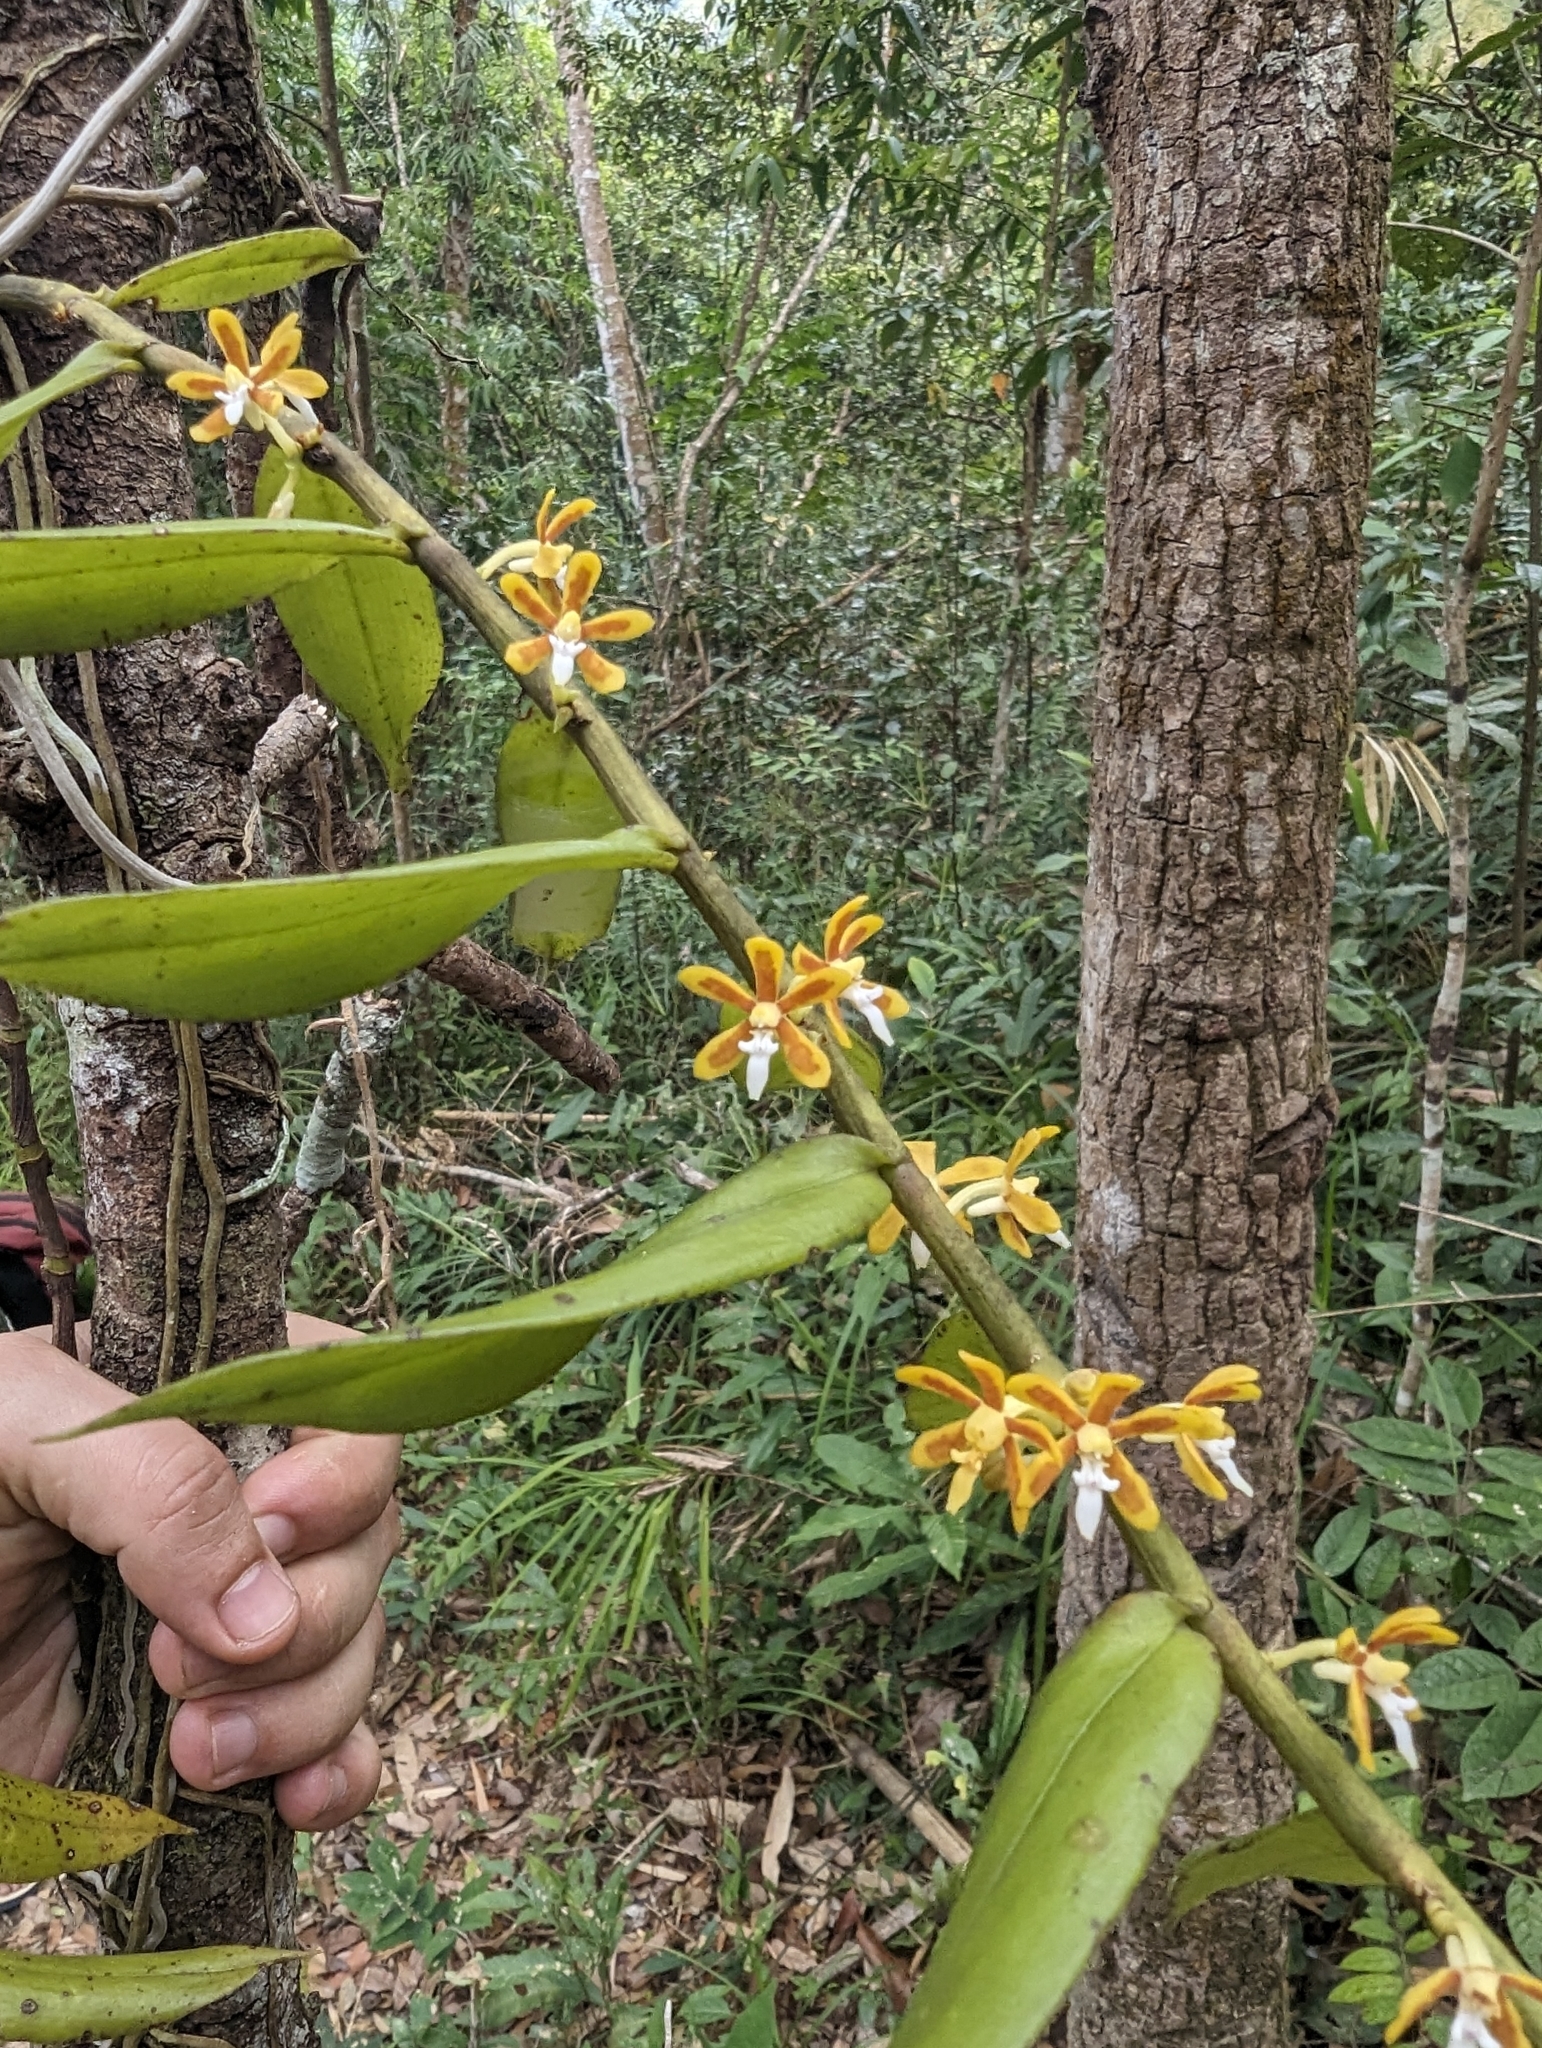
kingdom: Plantae
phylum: Tracheophyta
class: Liliopsida
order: Asparagales
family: Orchidaceae
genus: Trichoglottis
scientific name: Trichoglottis orchidea
